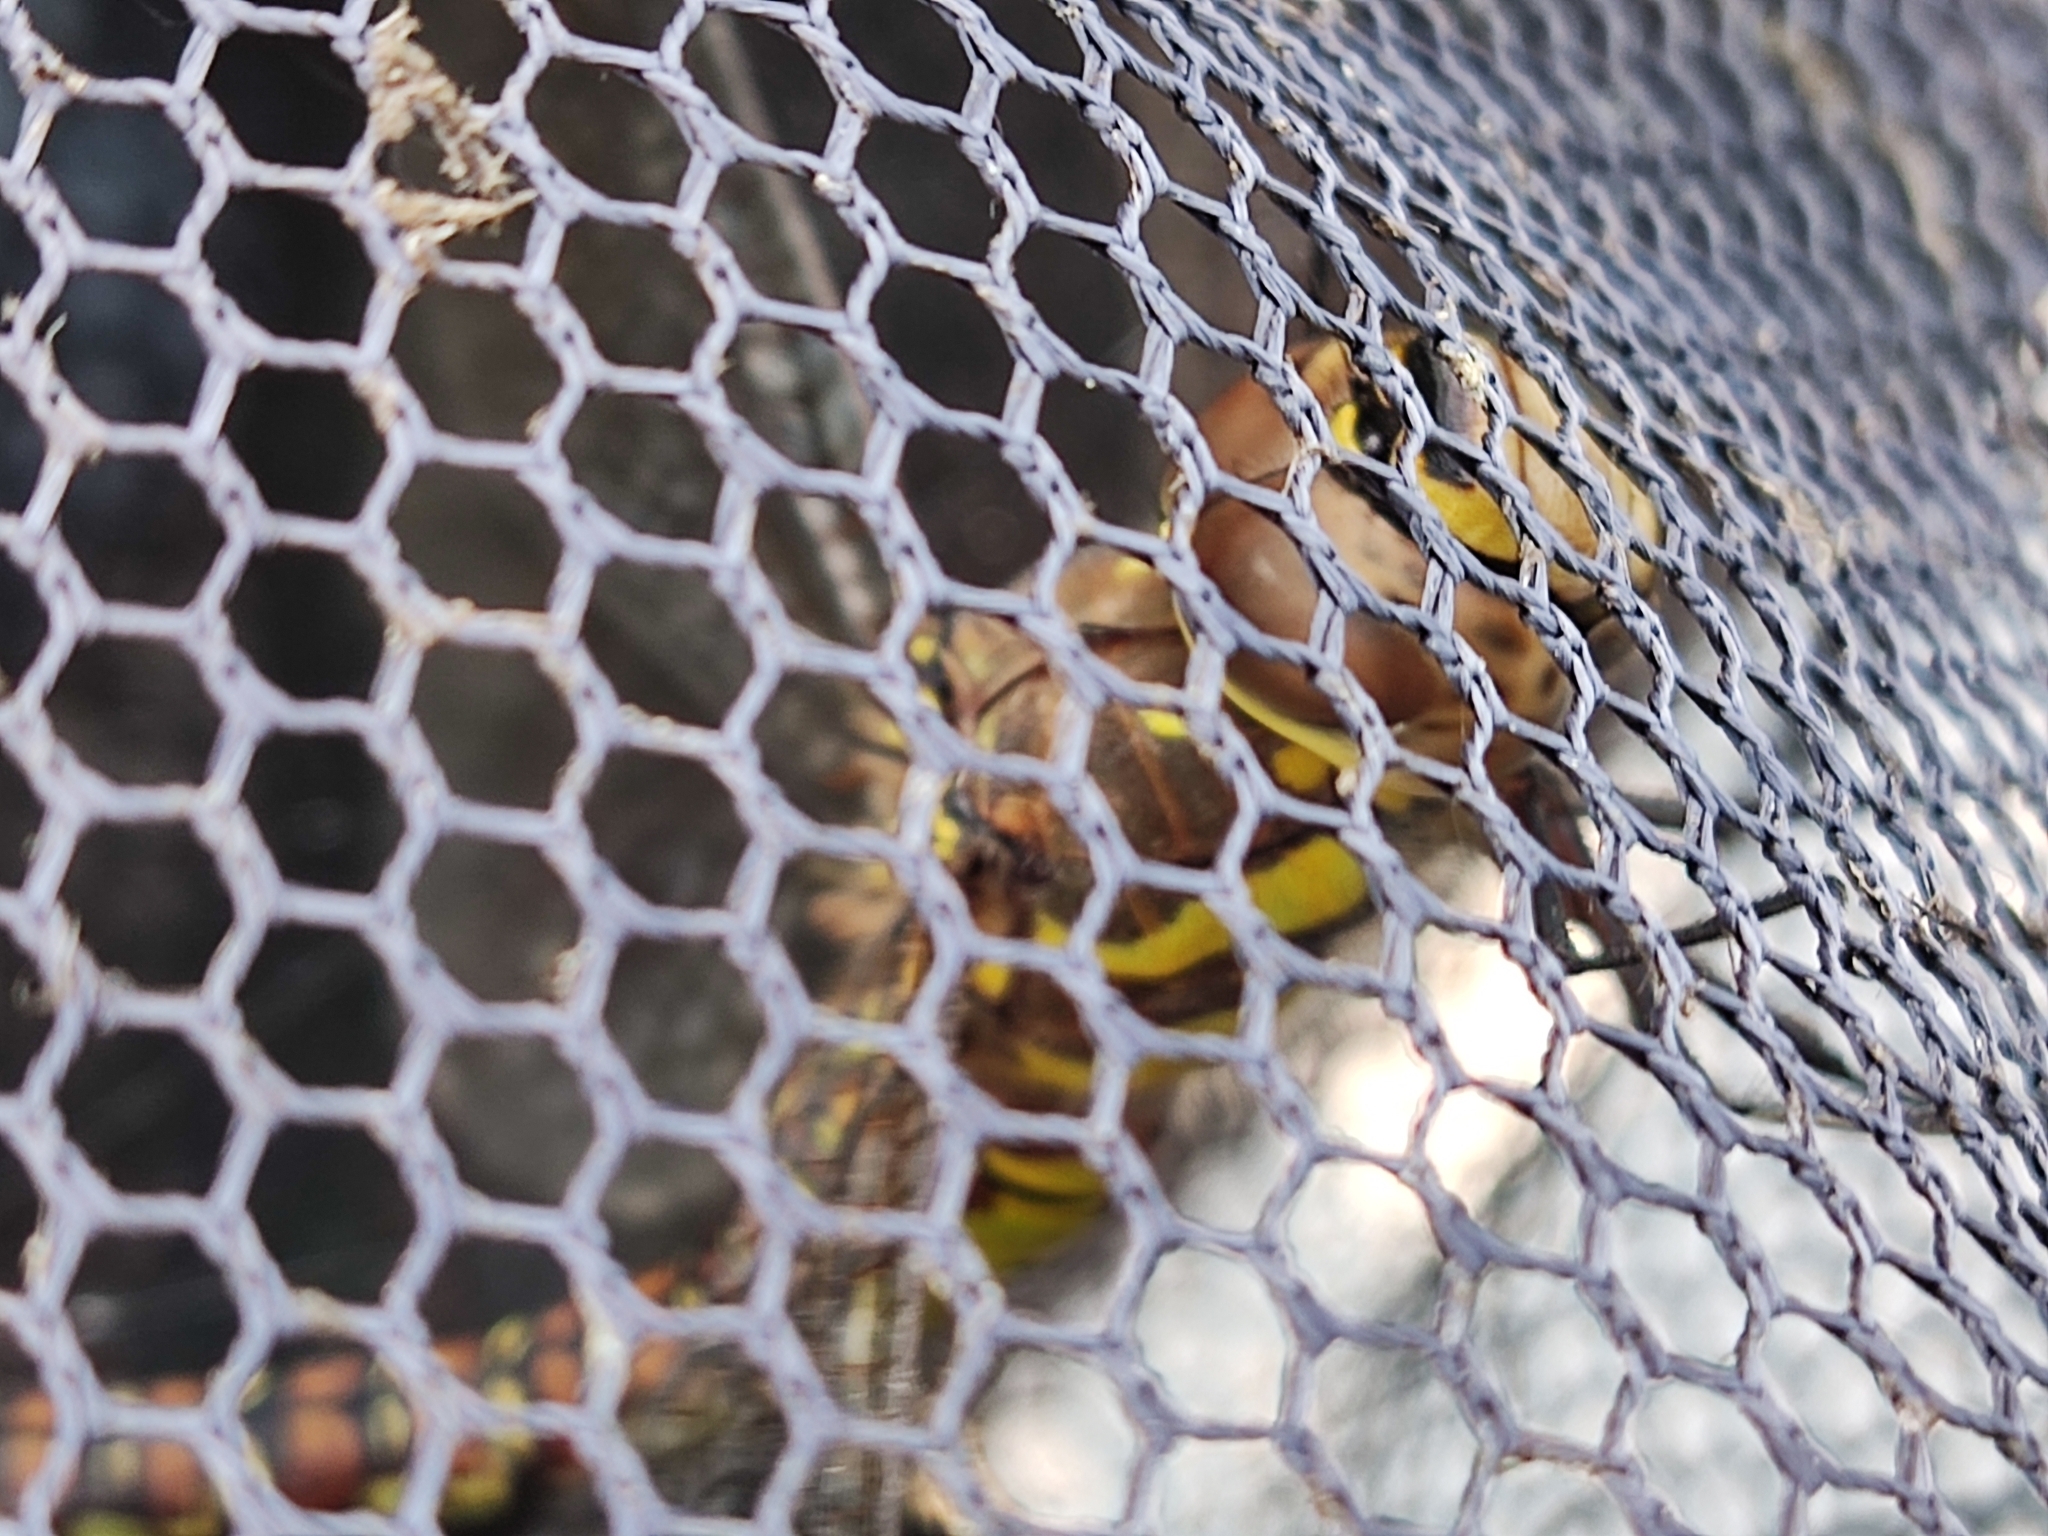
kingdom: Animalia
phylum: Arthropoda
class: Insecta
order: Odonata
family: Aeshnidae
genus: Aeshna
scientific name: Aeshna mixta
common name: Migrant hawker
